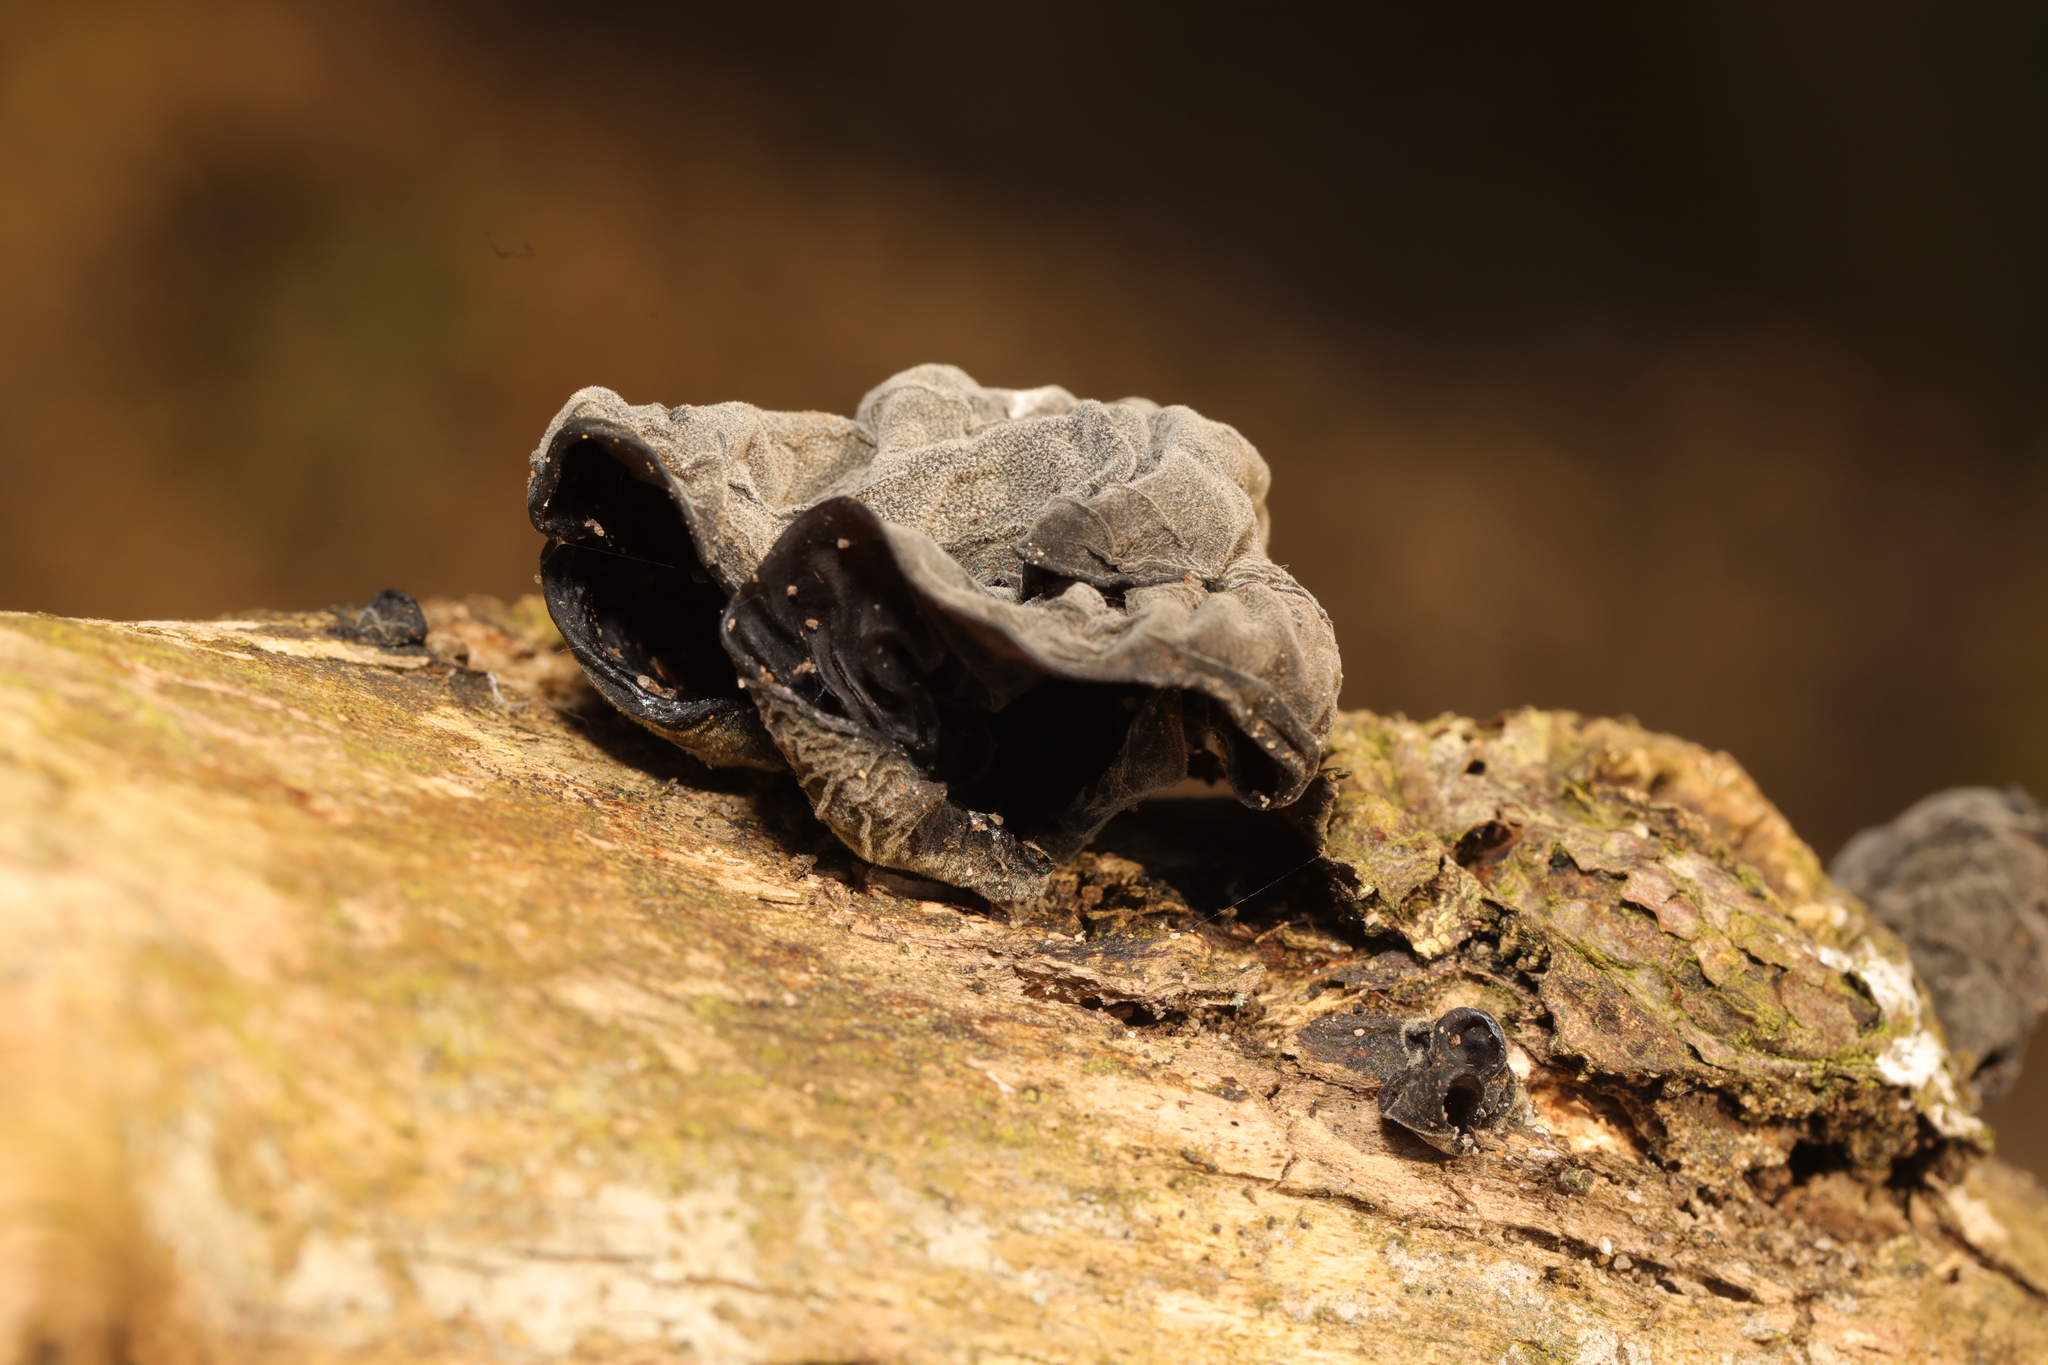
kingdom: Fungi
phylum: Basidiomycota
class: Agaricomycetes
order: Auriculariales
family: Auriculariaceae
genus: Auricularia
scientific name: Auricularia auricula-judae
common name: Jelly ear
